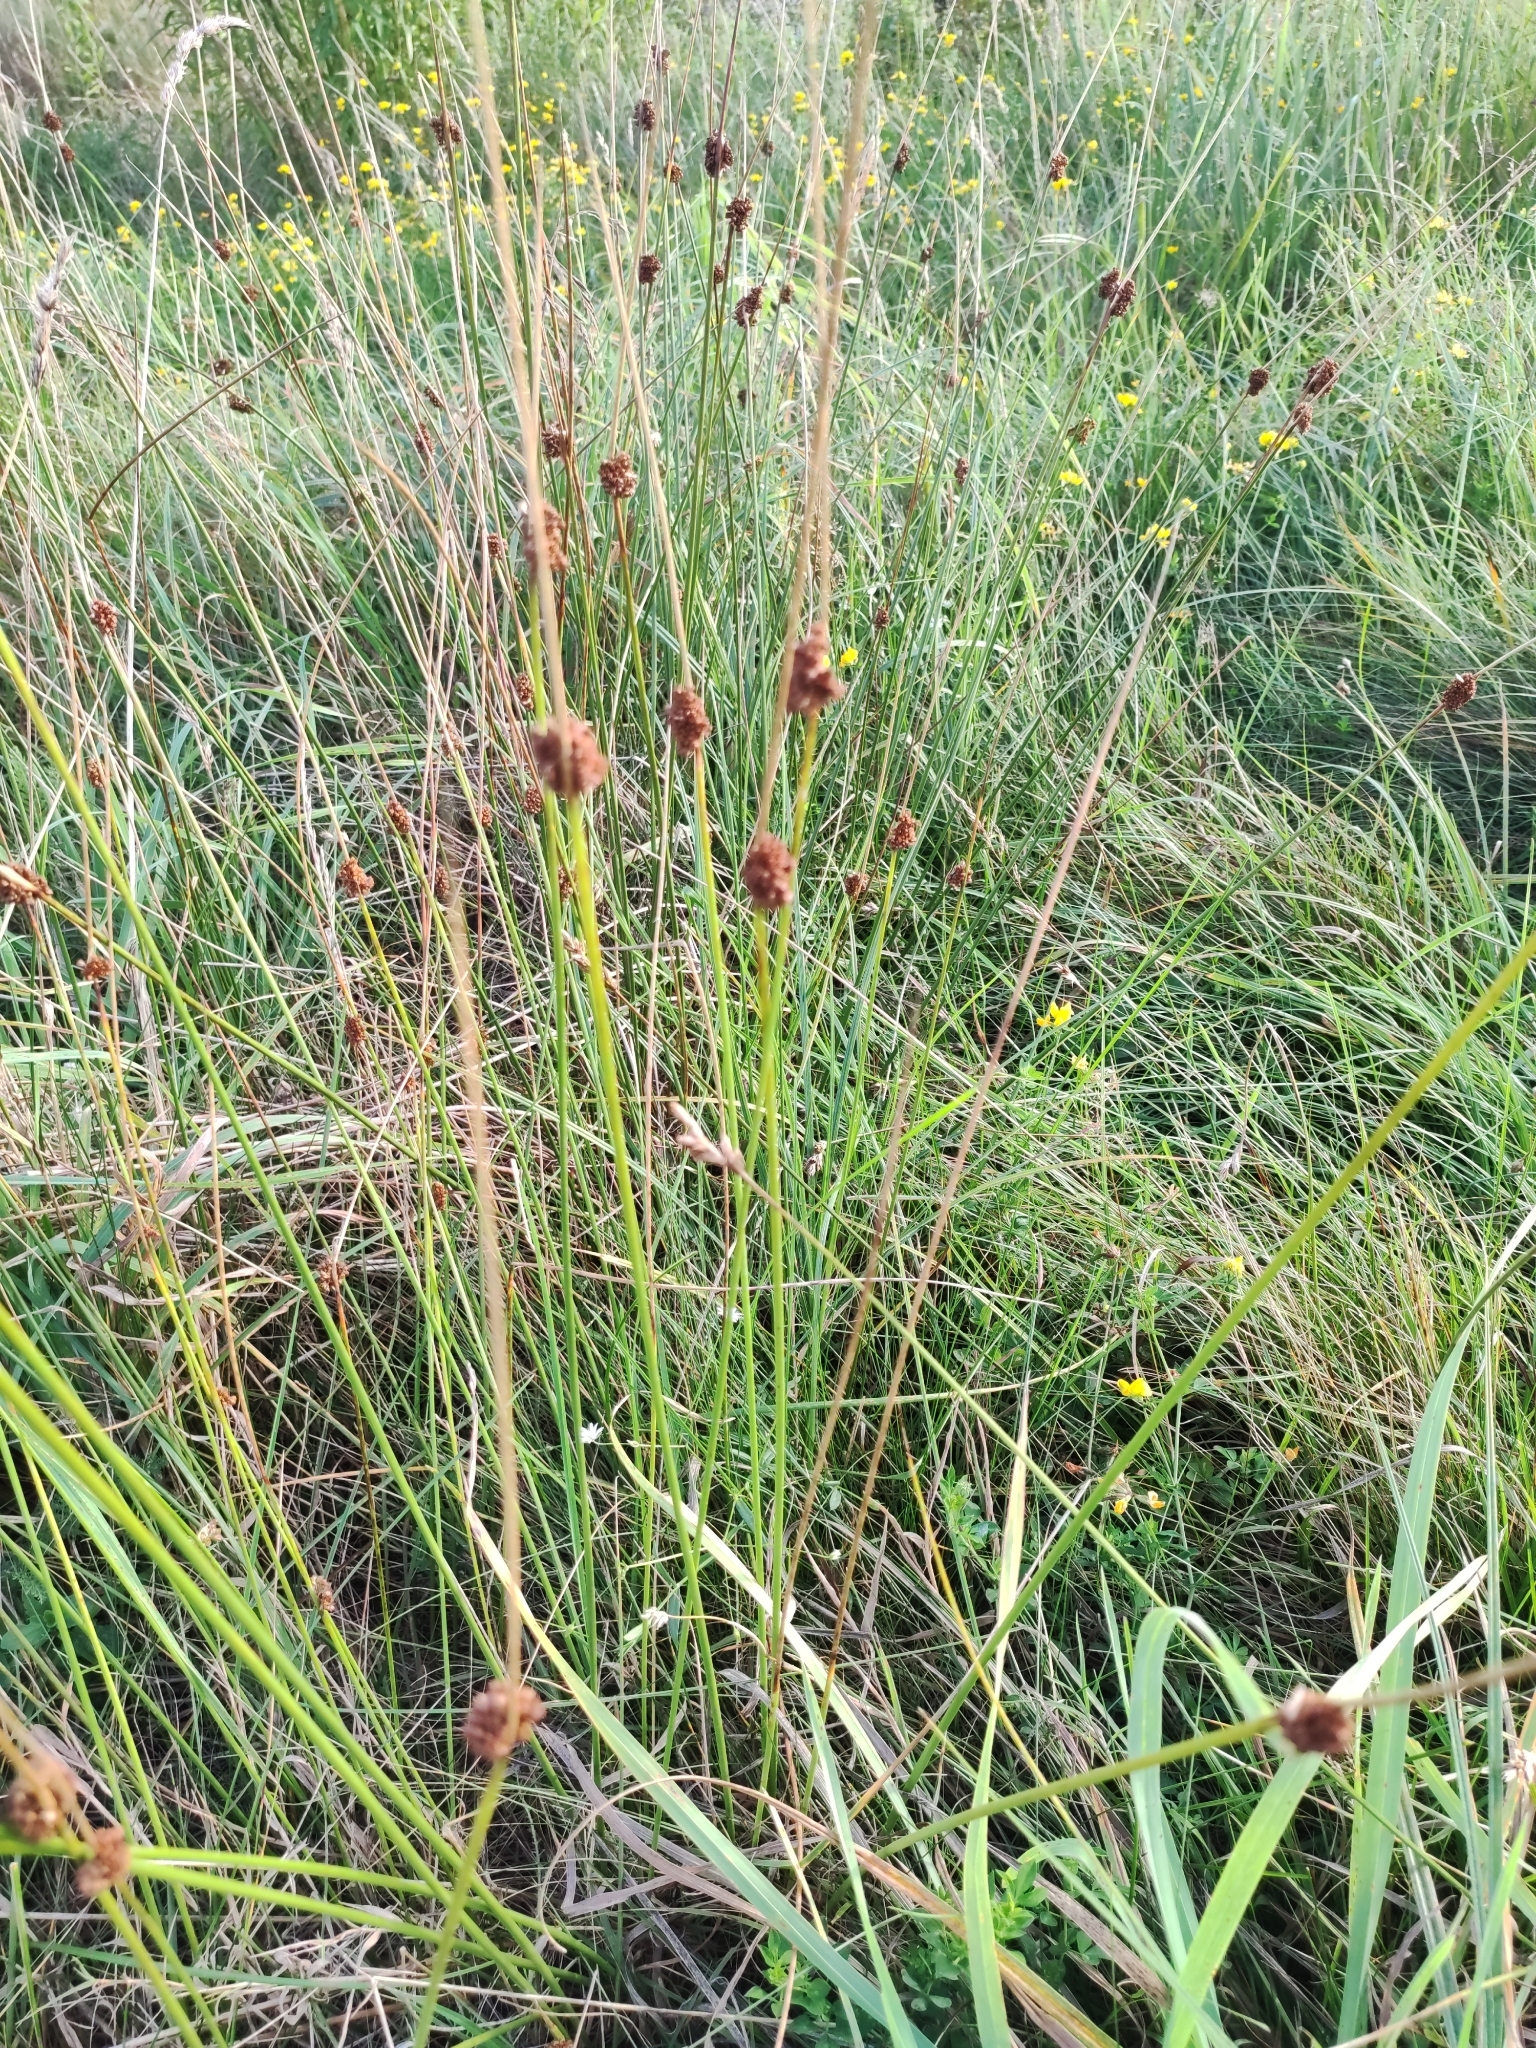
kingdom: Plantae
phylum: Tracheophyta
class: Liliopsida
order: Poales
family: Juncaceae
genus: Juncus
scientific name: Juncus conglomeratus
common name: Compact rush
